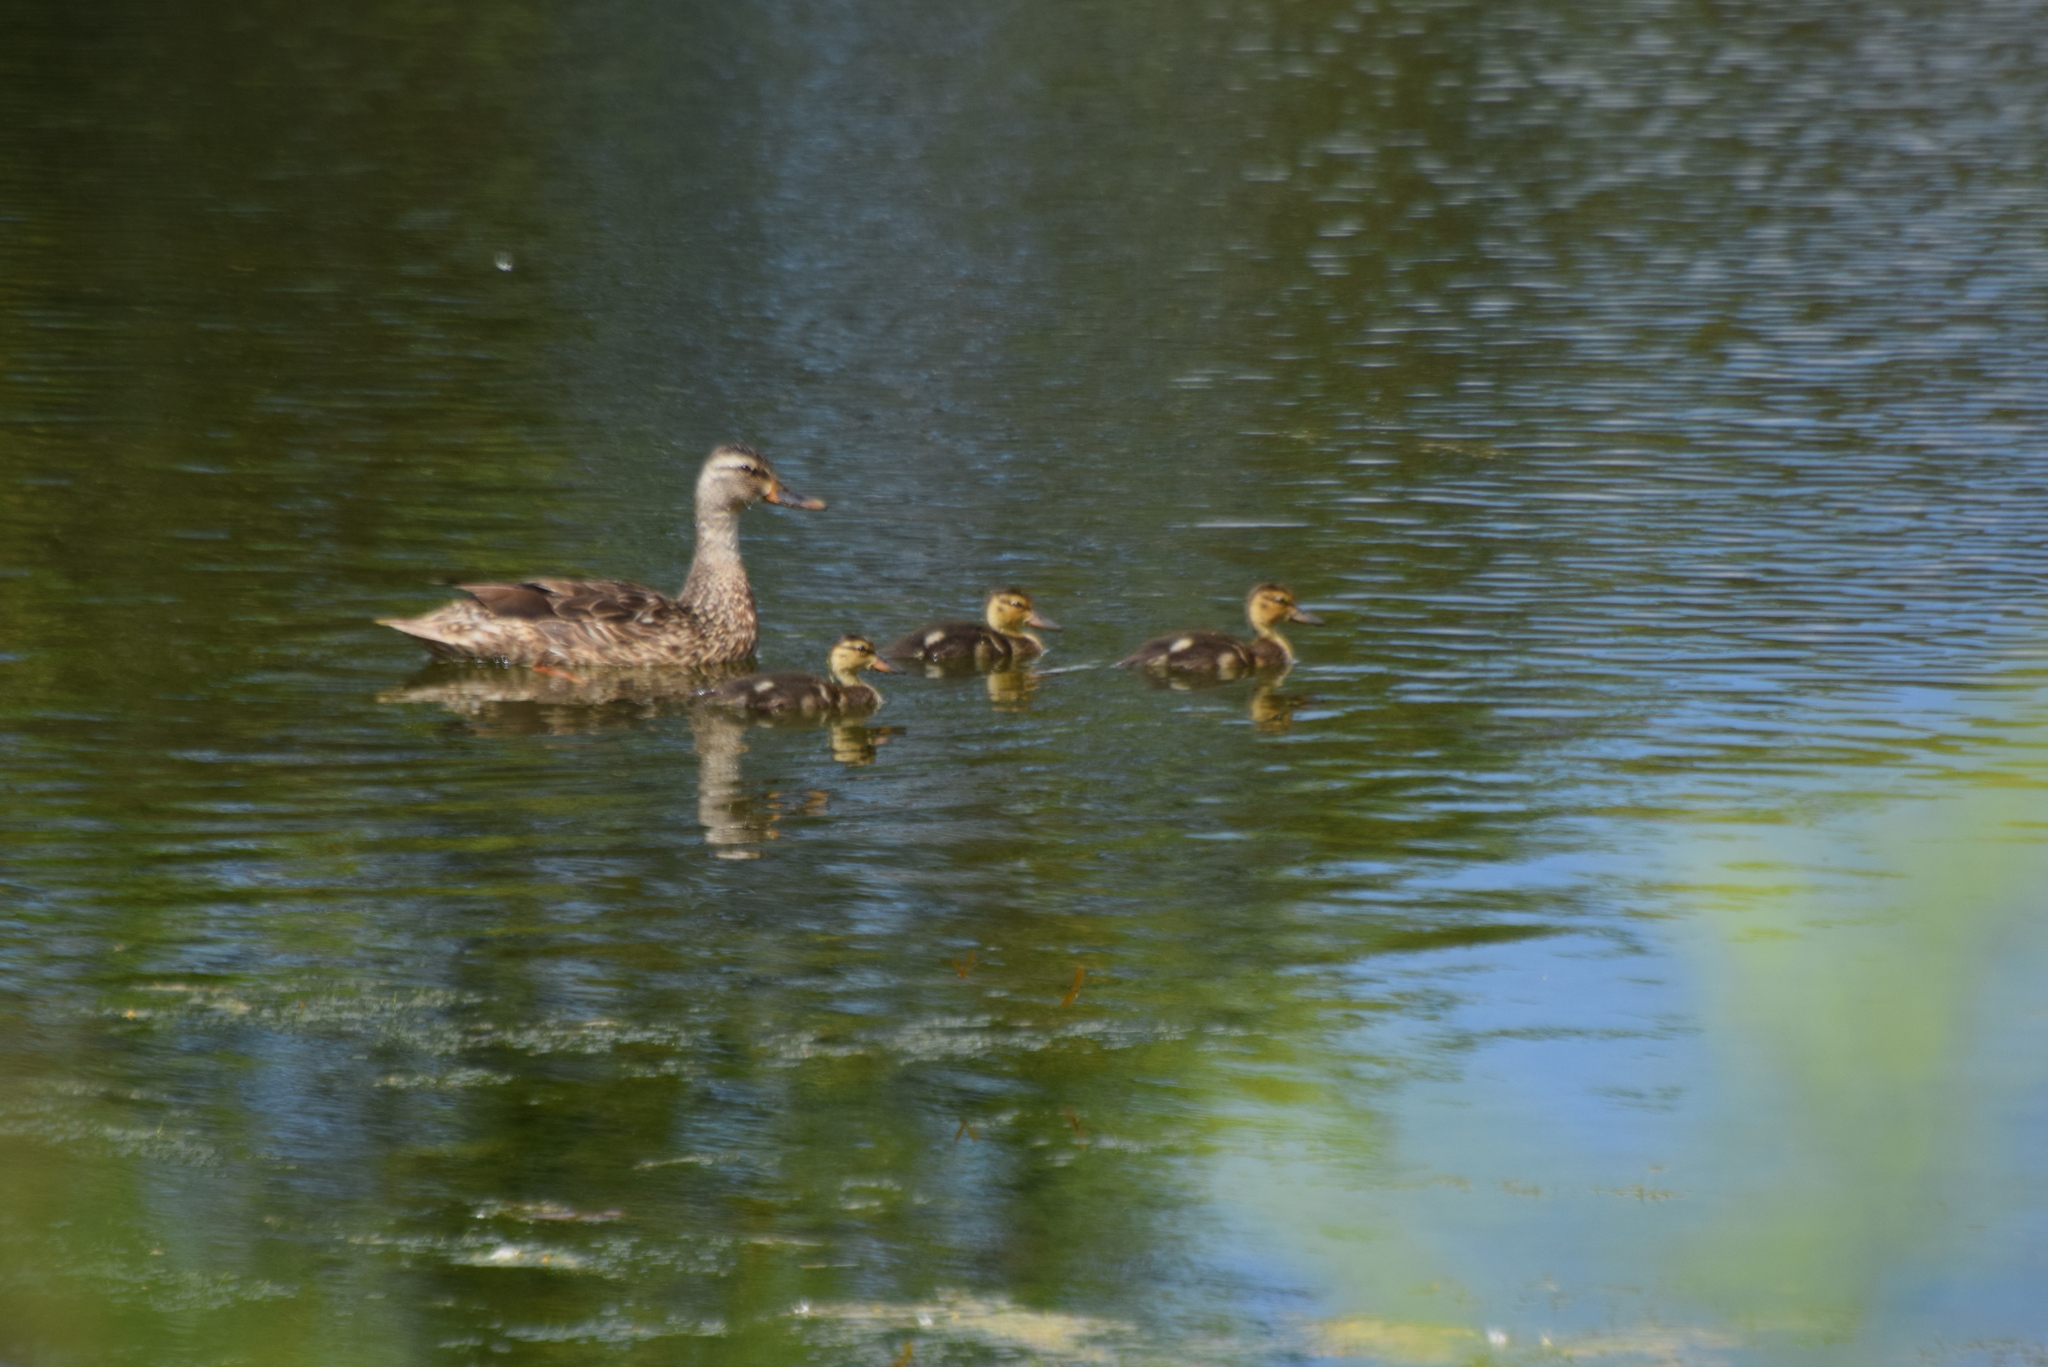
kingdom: Animalia
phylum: Chordata
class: Aves
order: Anseriformes
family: Anatidae
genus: Anas
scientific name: Anas platyrhynchos
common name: Mallard
